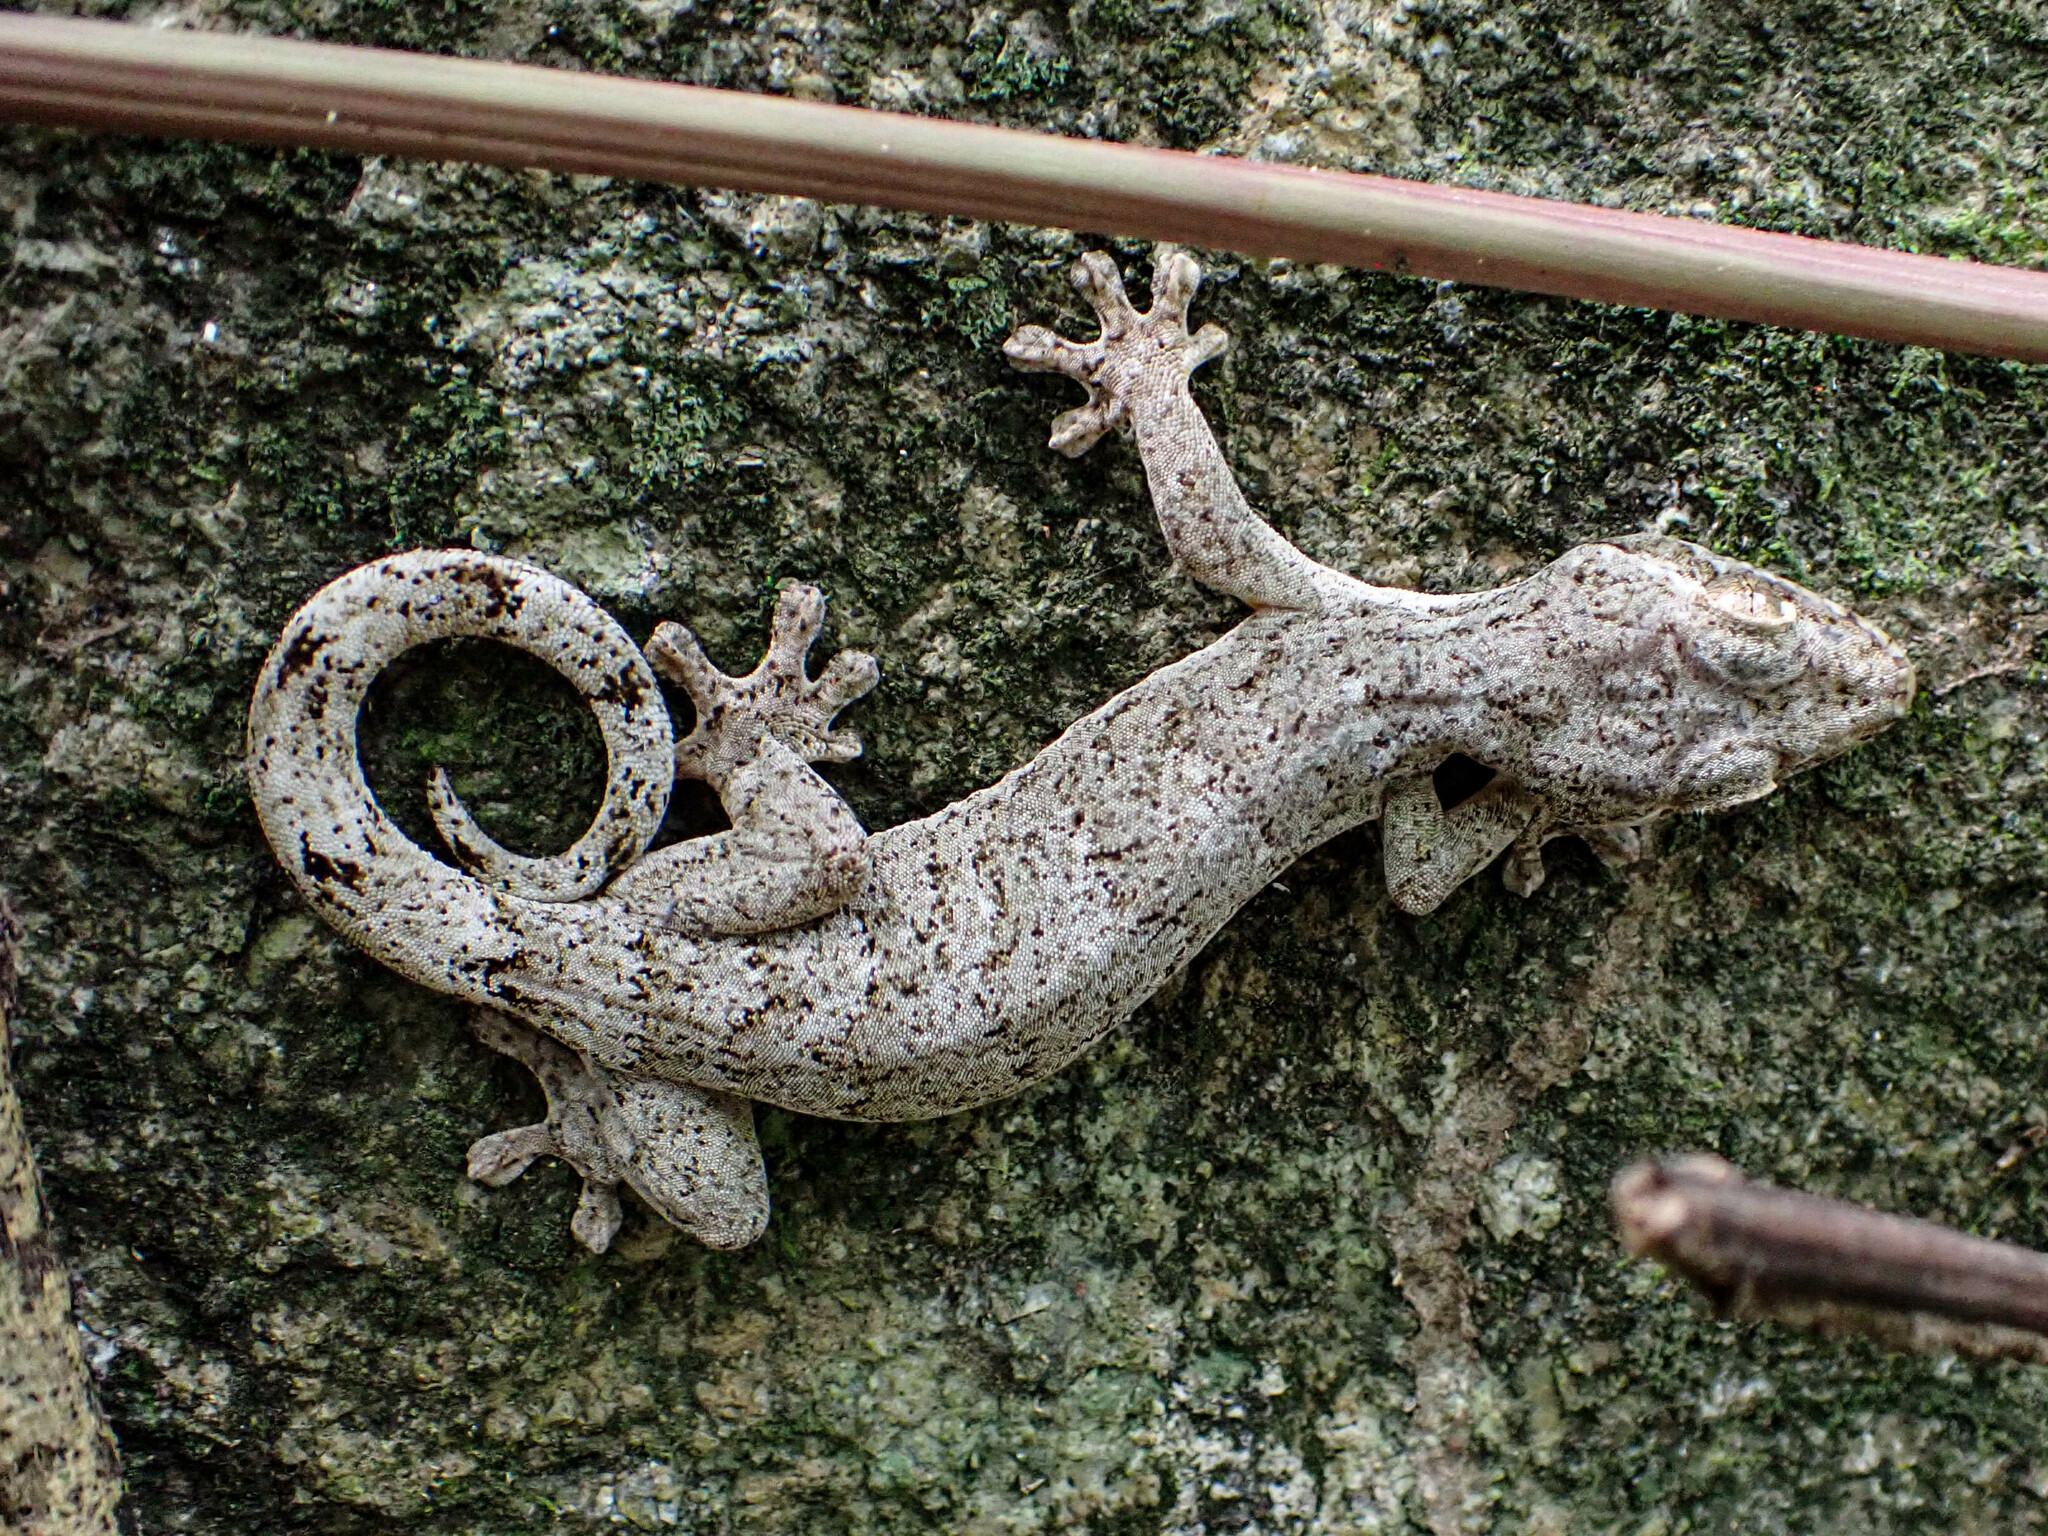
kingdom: Animalia
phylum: Chordata
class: Squamata
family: Phyllodactylidae
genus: Thecadactylus
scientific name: Thecadactylus rapicauda
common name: Turnip-tailed gecko
